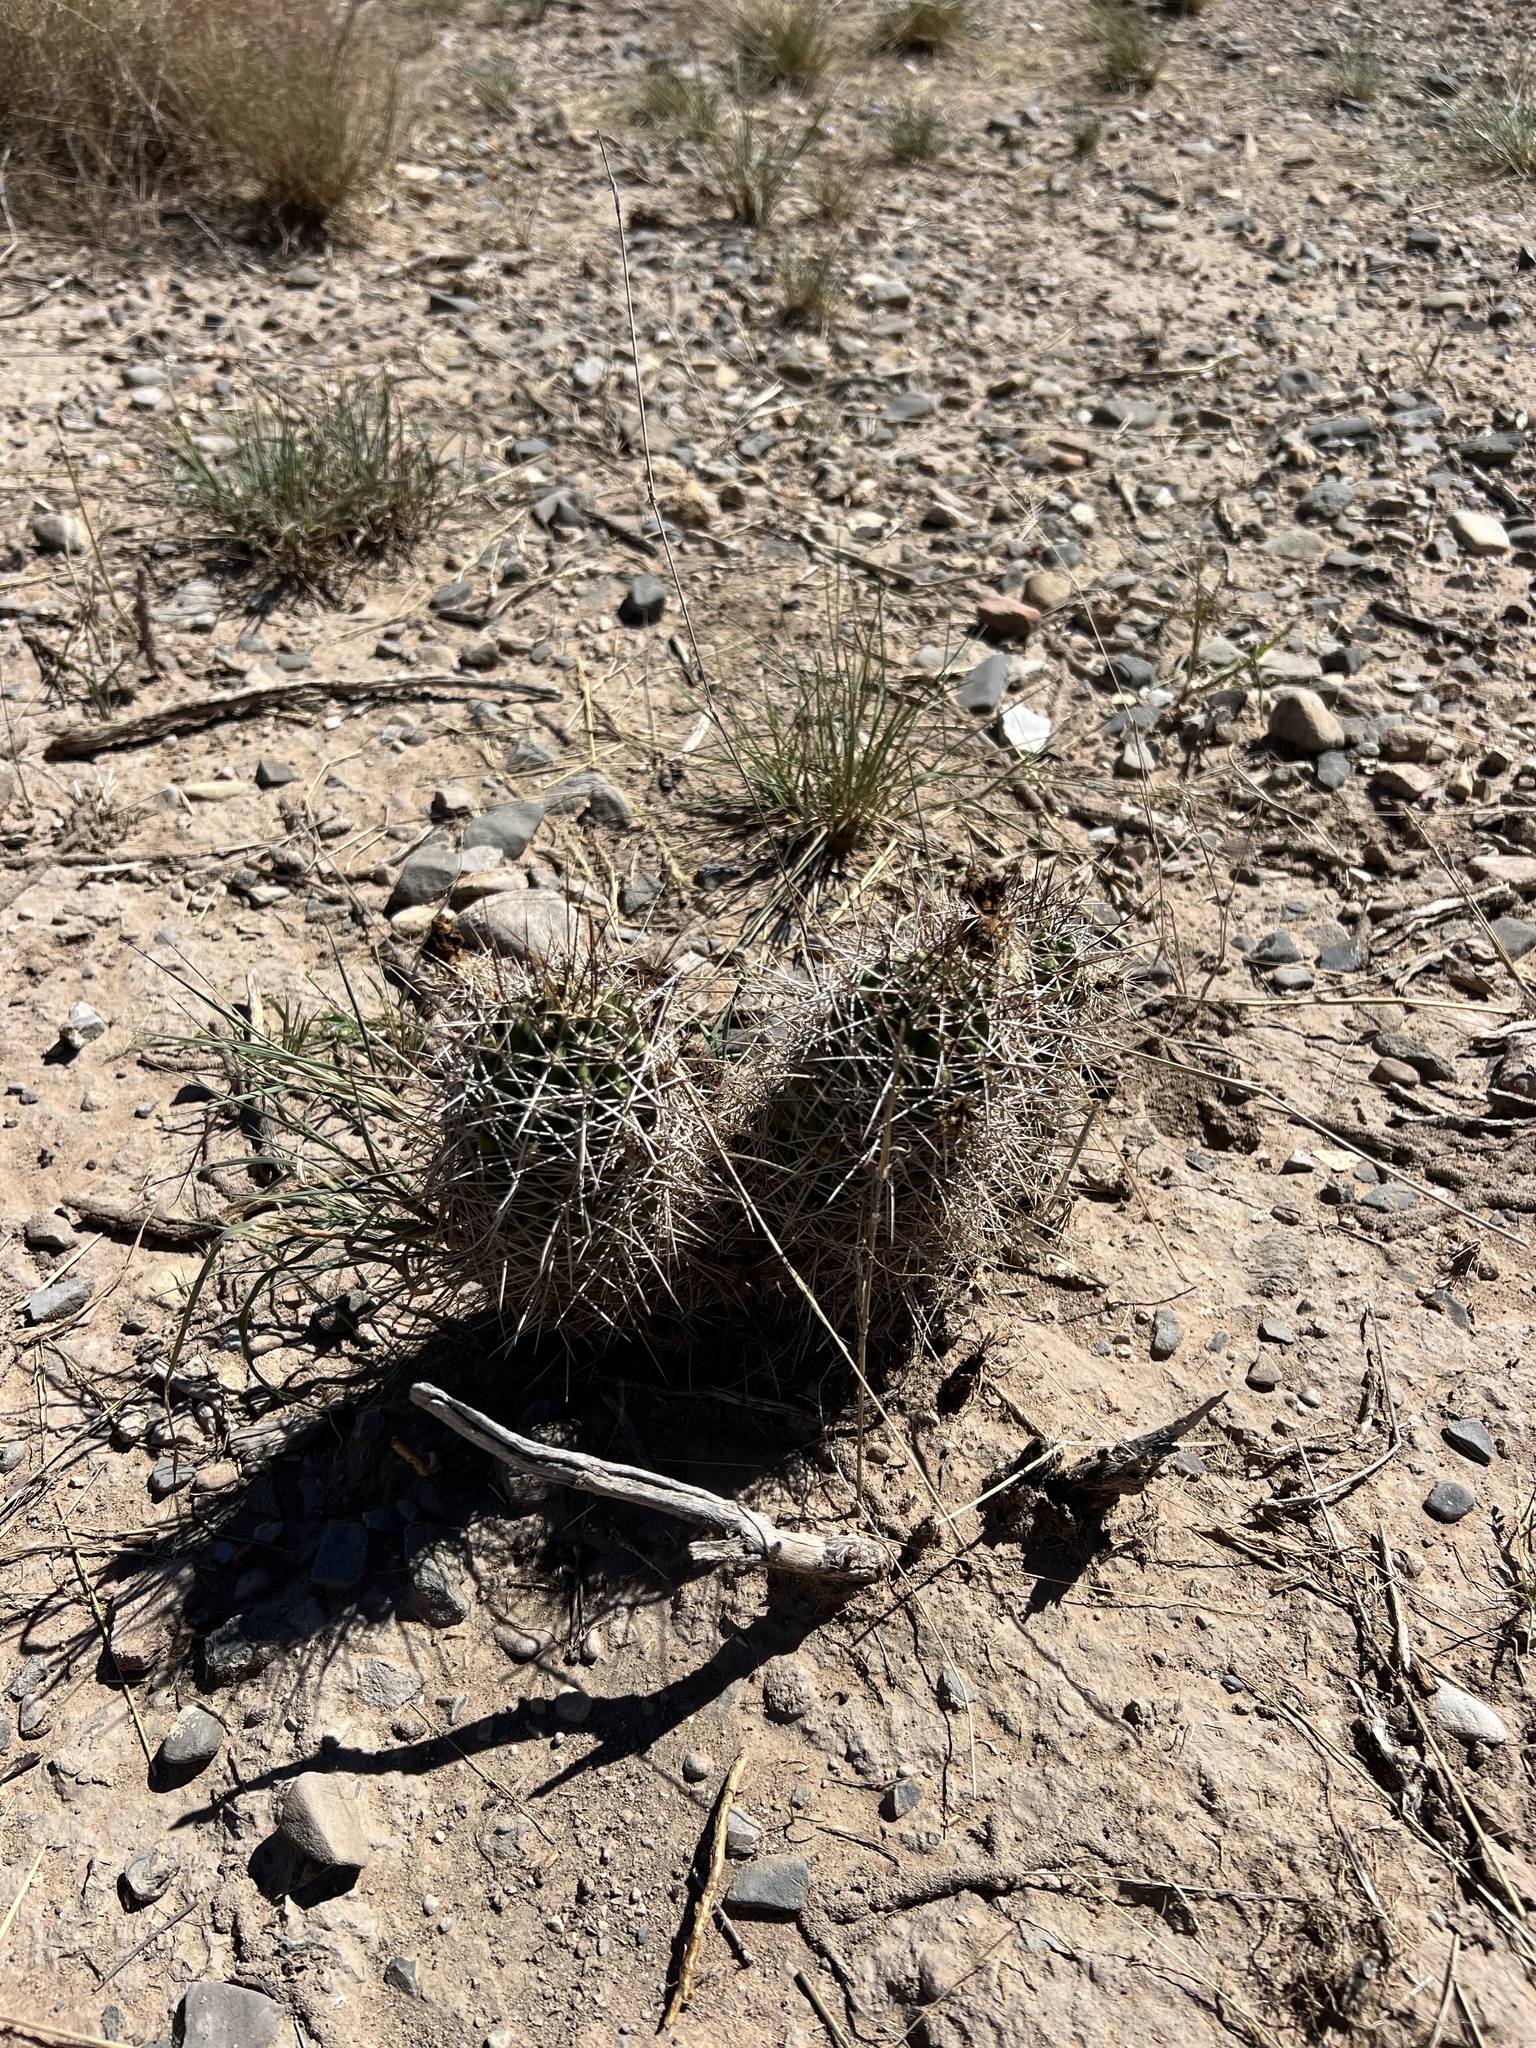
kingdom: Plantae
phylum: Tracheophyta
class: Magnoliopsida
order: Caryophyllales
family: Cactaceae
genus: Echinocereus
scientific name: Echinocereus fendleri
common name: Fendler's hedgehog cactus
